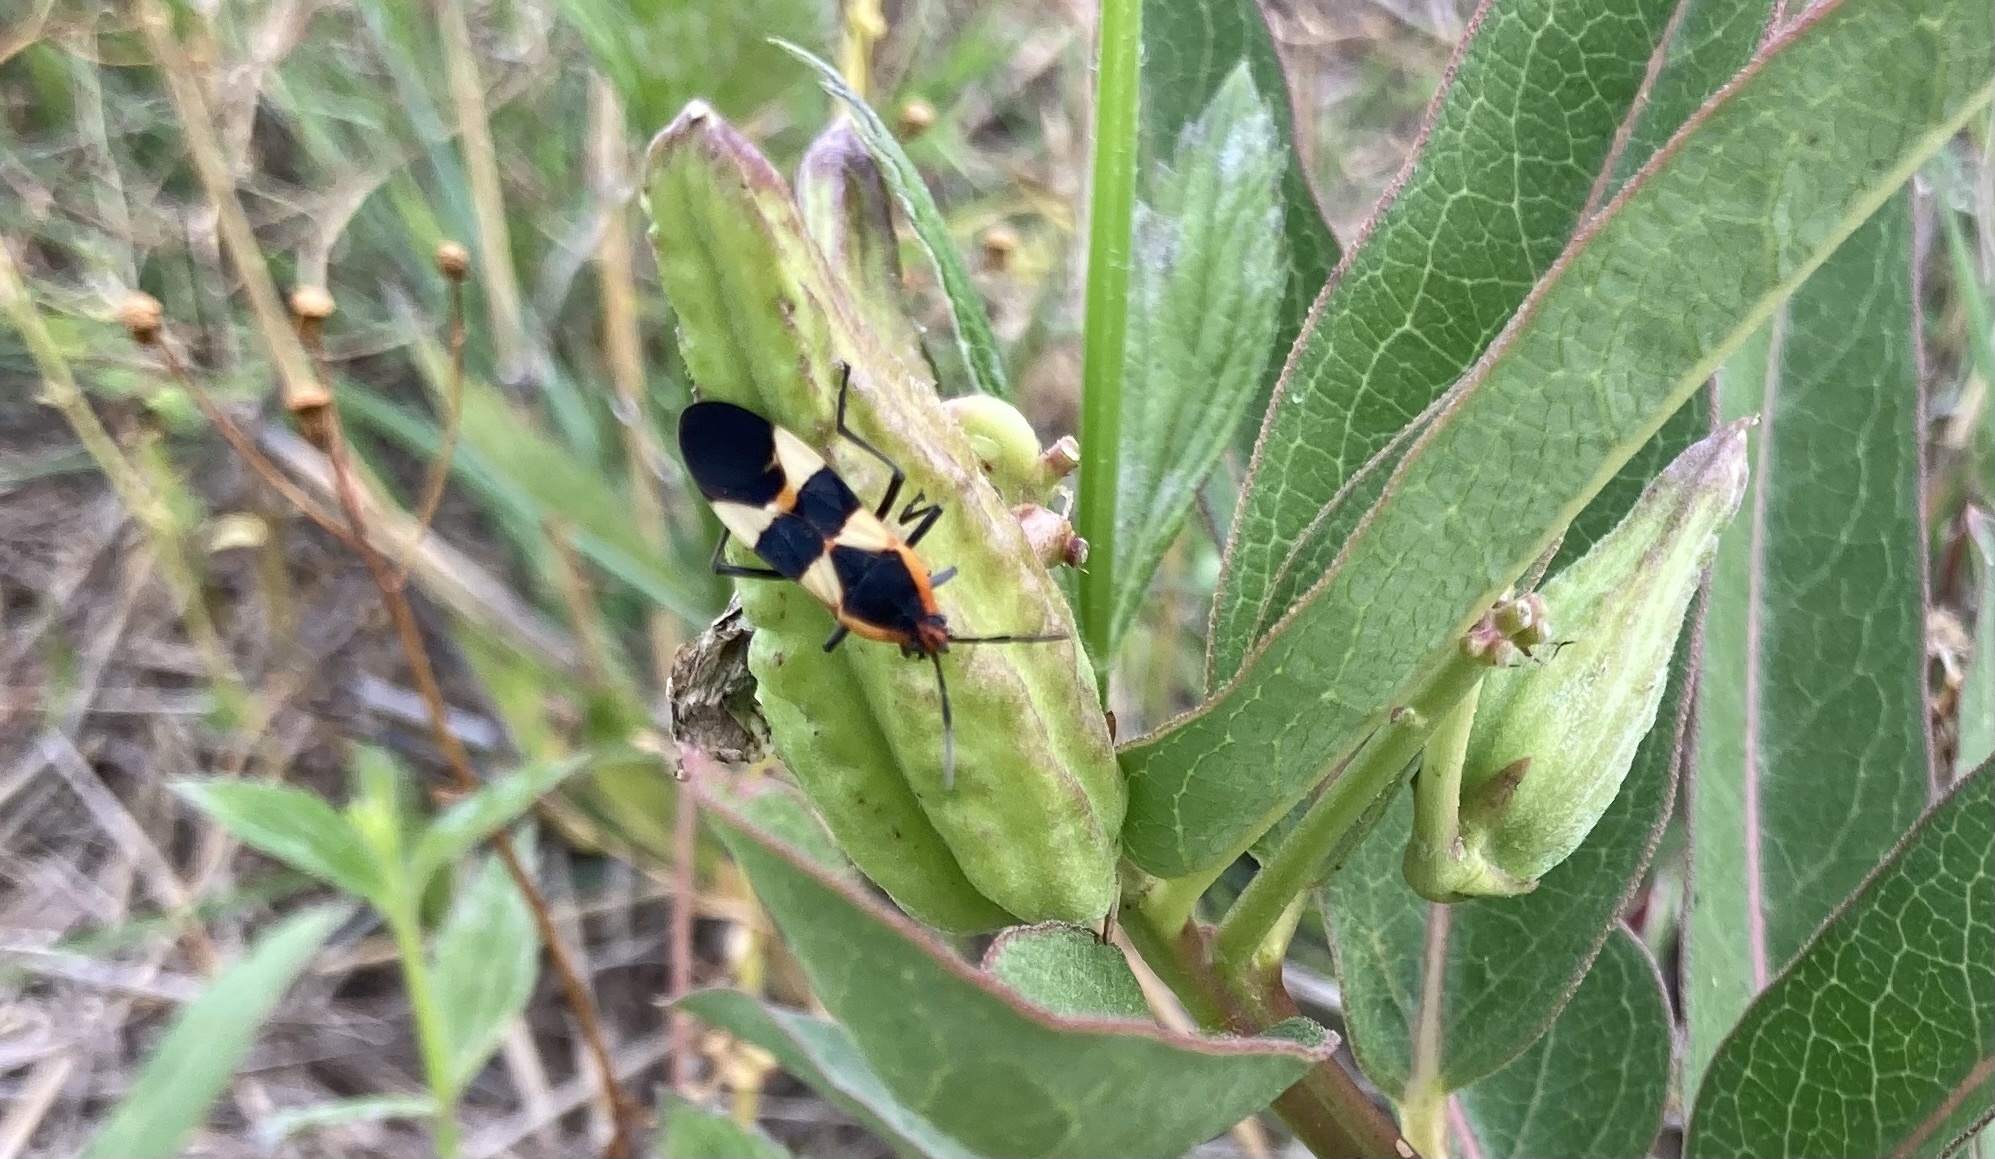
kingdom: Animalia
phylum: Arthropoda
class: Insecta
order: Hemiptera
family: Lygaeidae
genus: Oncopeltus
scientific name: Oncopeltus fasciatus
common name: Large milkweed bug
